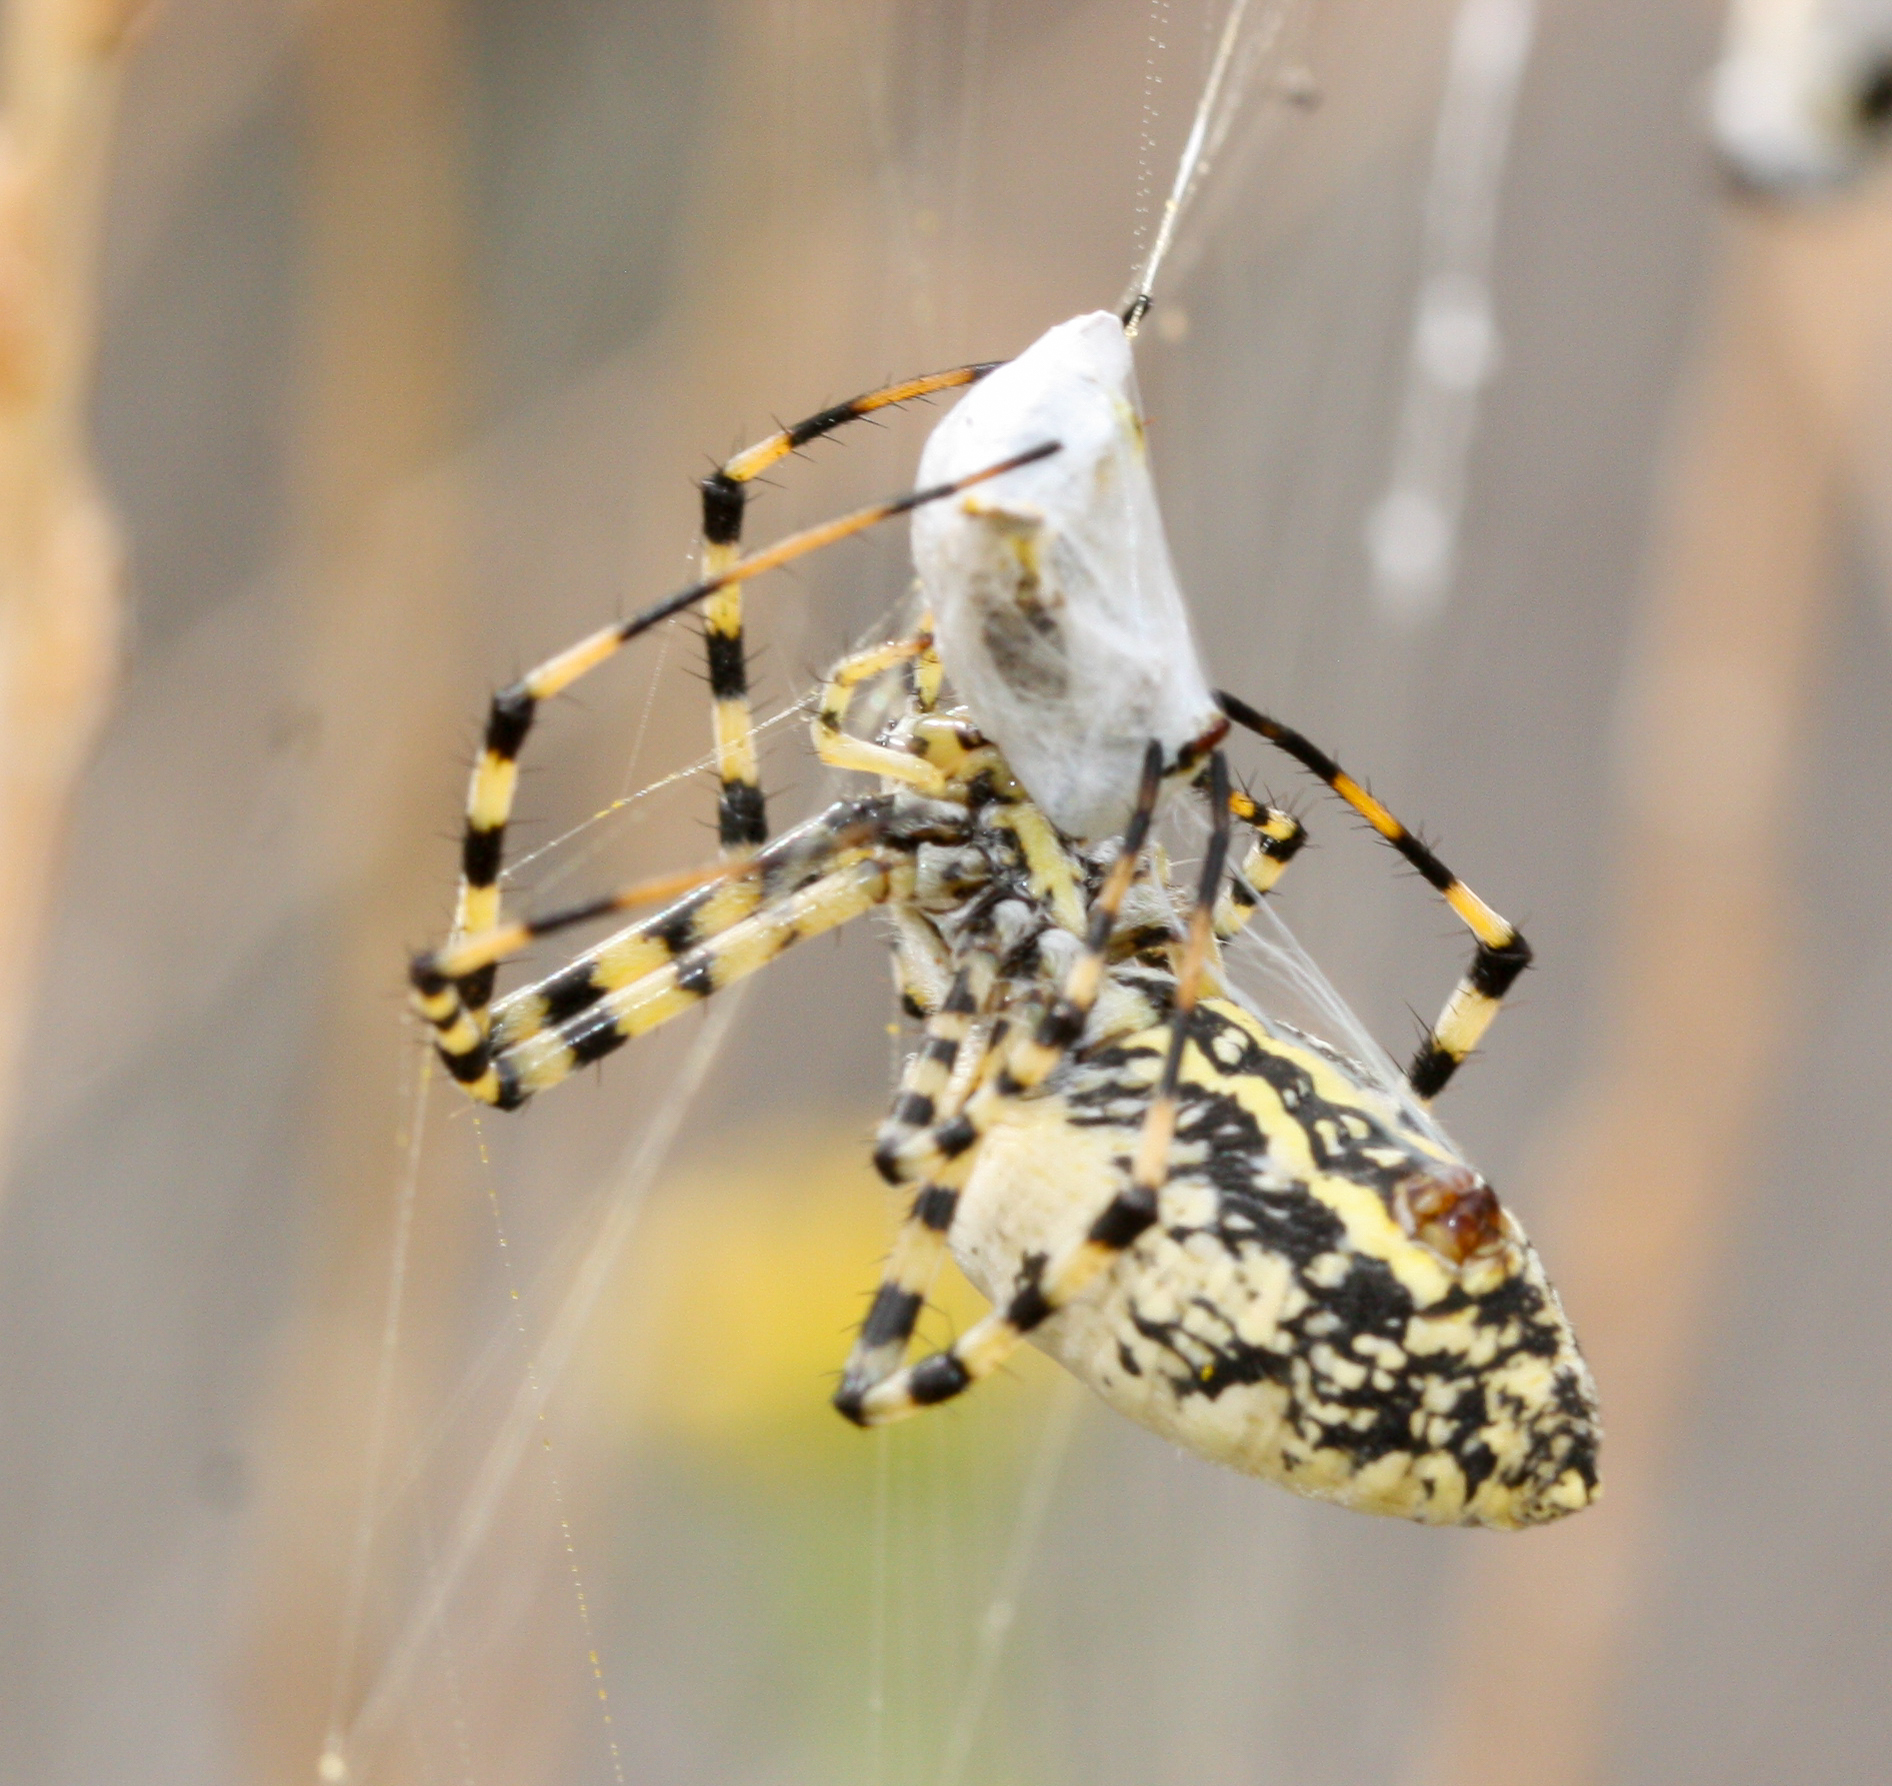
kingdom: Animalia
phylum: Arthropoda
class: Arachnida
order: Araneae
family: Araneidae
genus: Argiope
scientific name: Argiope trifasciata
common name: Banded garden spider
